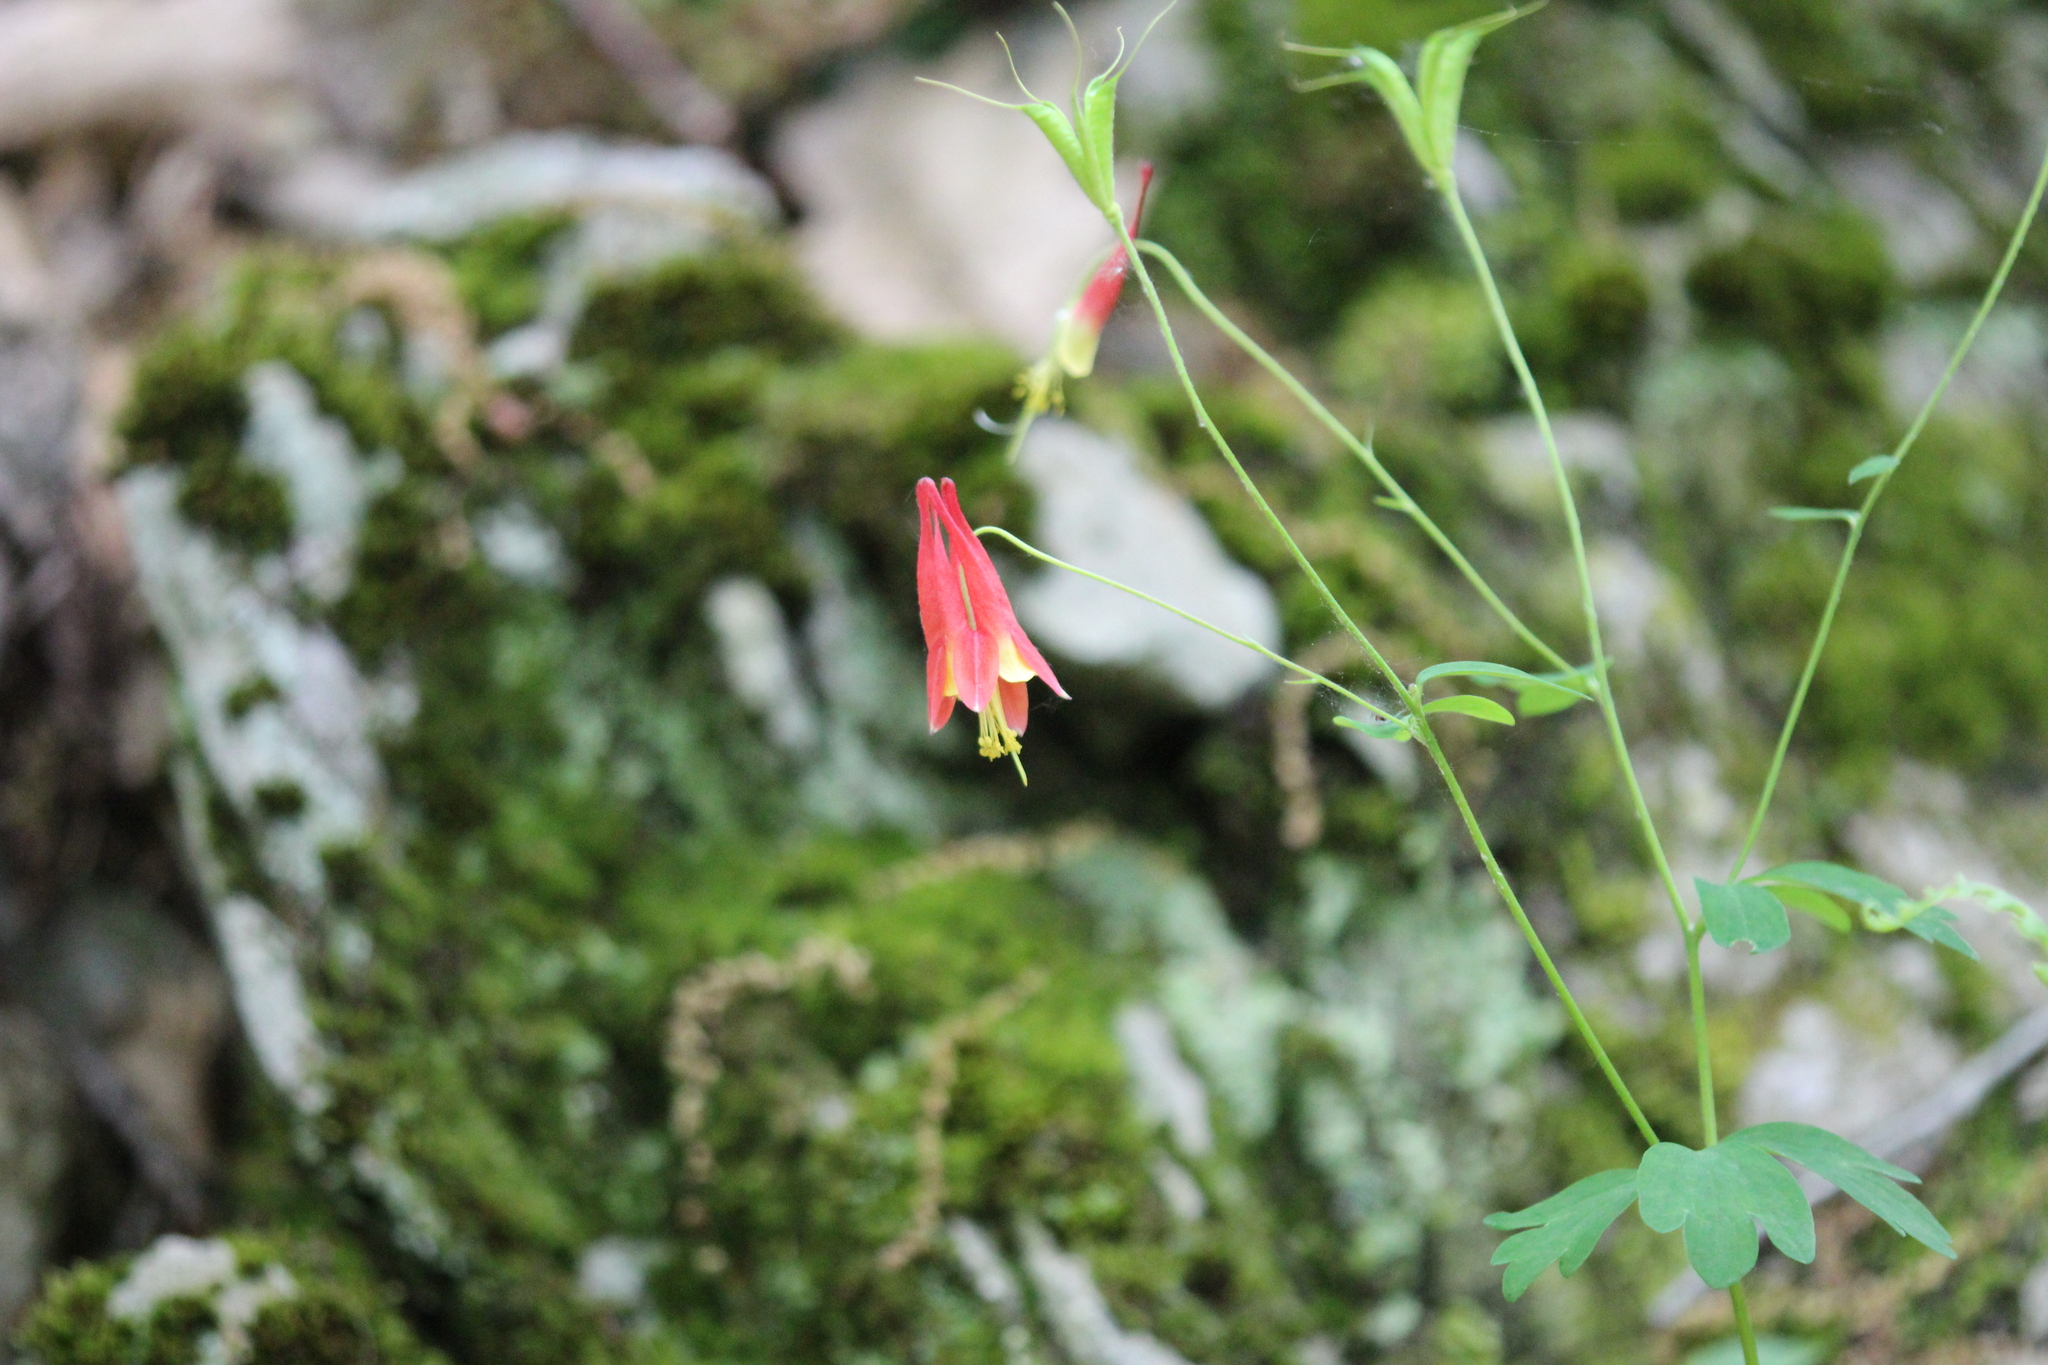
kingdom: Plantae
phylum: Tracheophyta
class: Magnoliopsida
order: Ranunculales
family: Ranunculaceae
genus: Aquilegia
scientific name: Aquilegia canadensis
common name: American columbine
